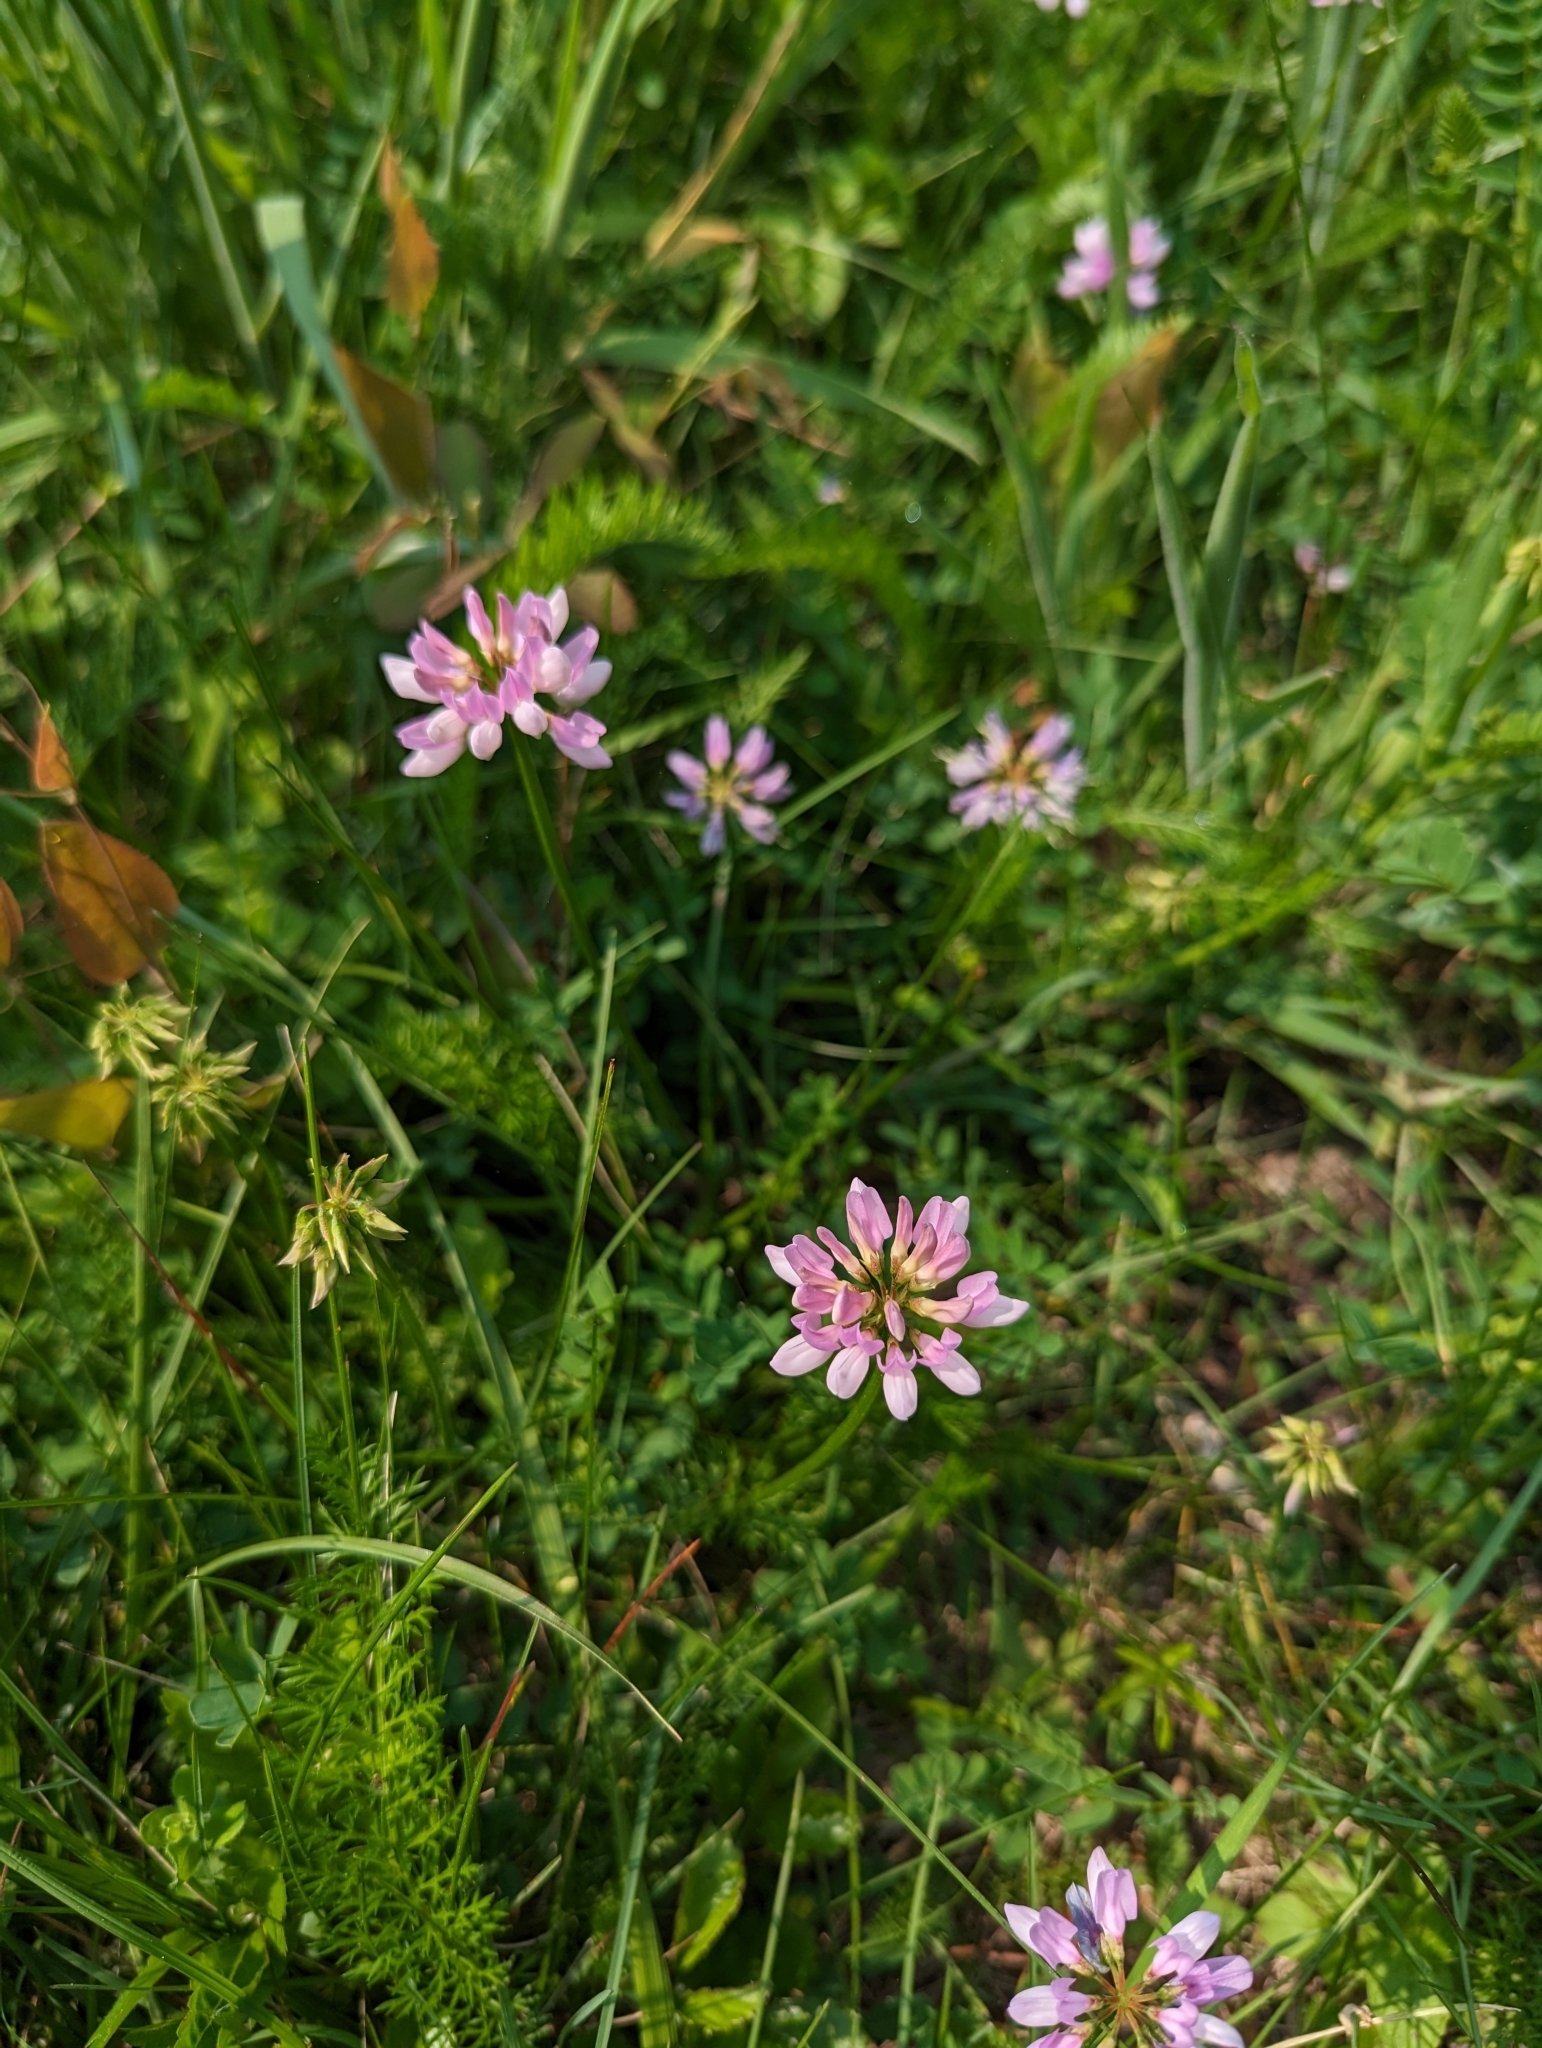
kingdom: Plantae
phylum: Tracheophyta
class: Magnoliopsida
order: Fabales
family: Fabaceae
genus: Coronilla
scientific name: Coronilla varia
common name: Crownvetch
